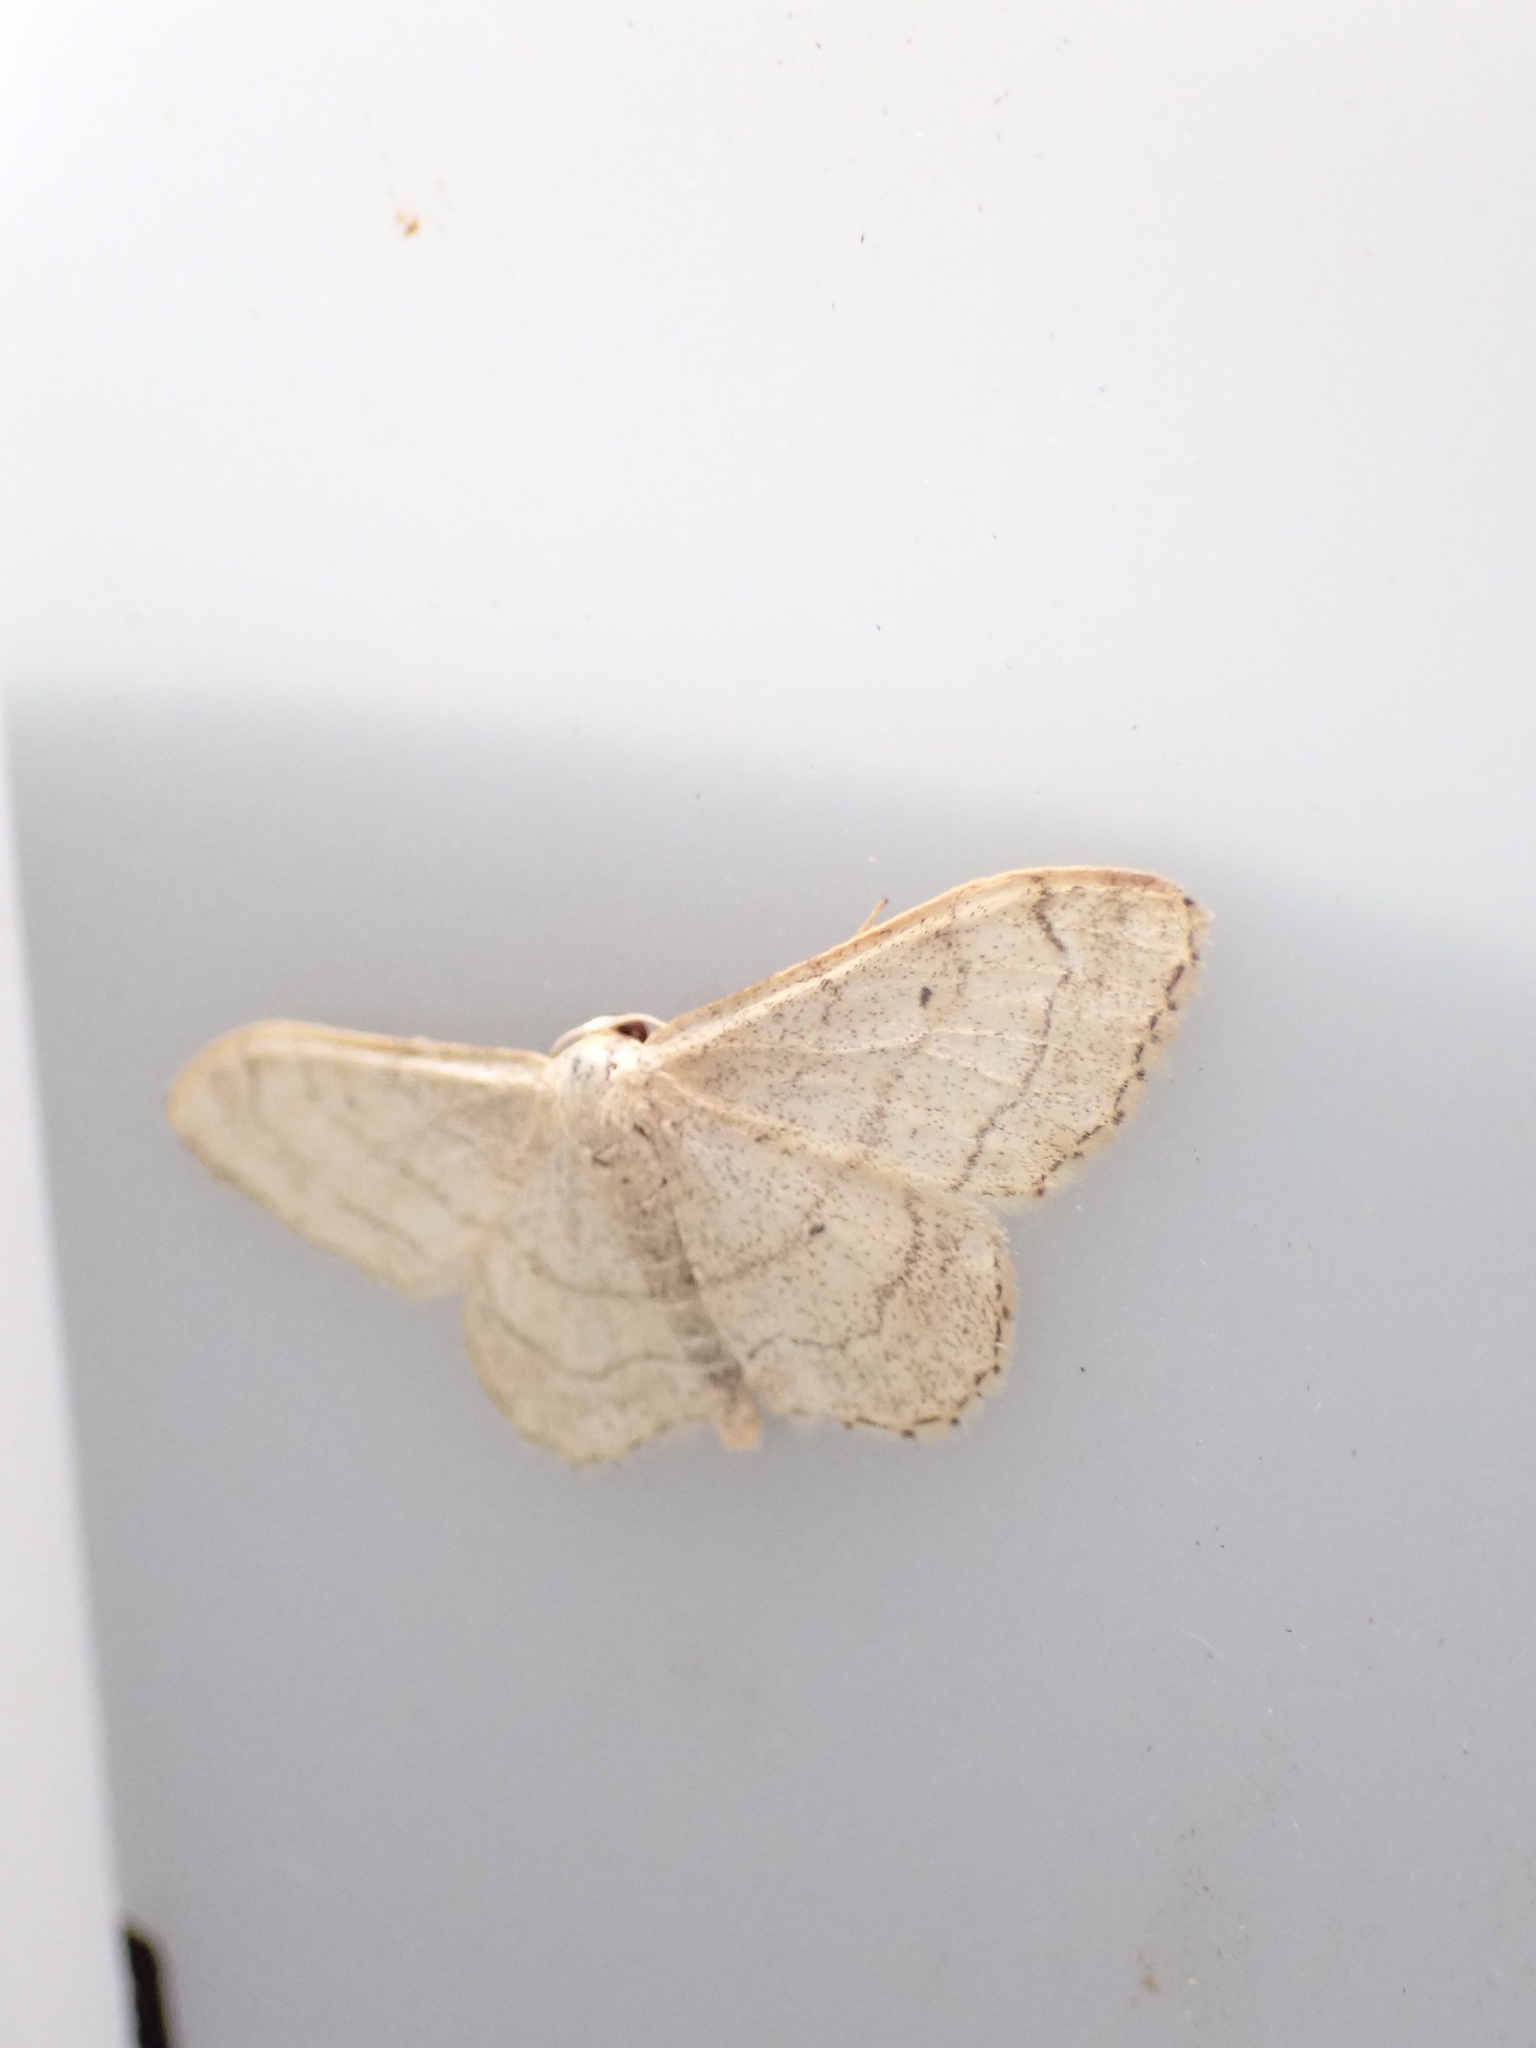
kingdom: Animalia
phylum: Arthropoda
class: Insecta
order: Lepidoptera
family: Geometridae
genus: Idaea
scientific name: Idaea aversata
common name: Riband wave
